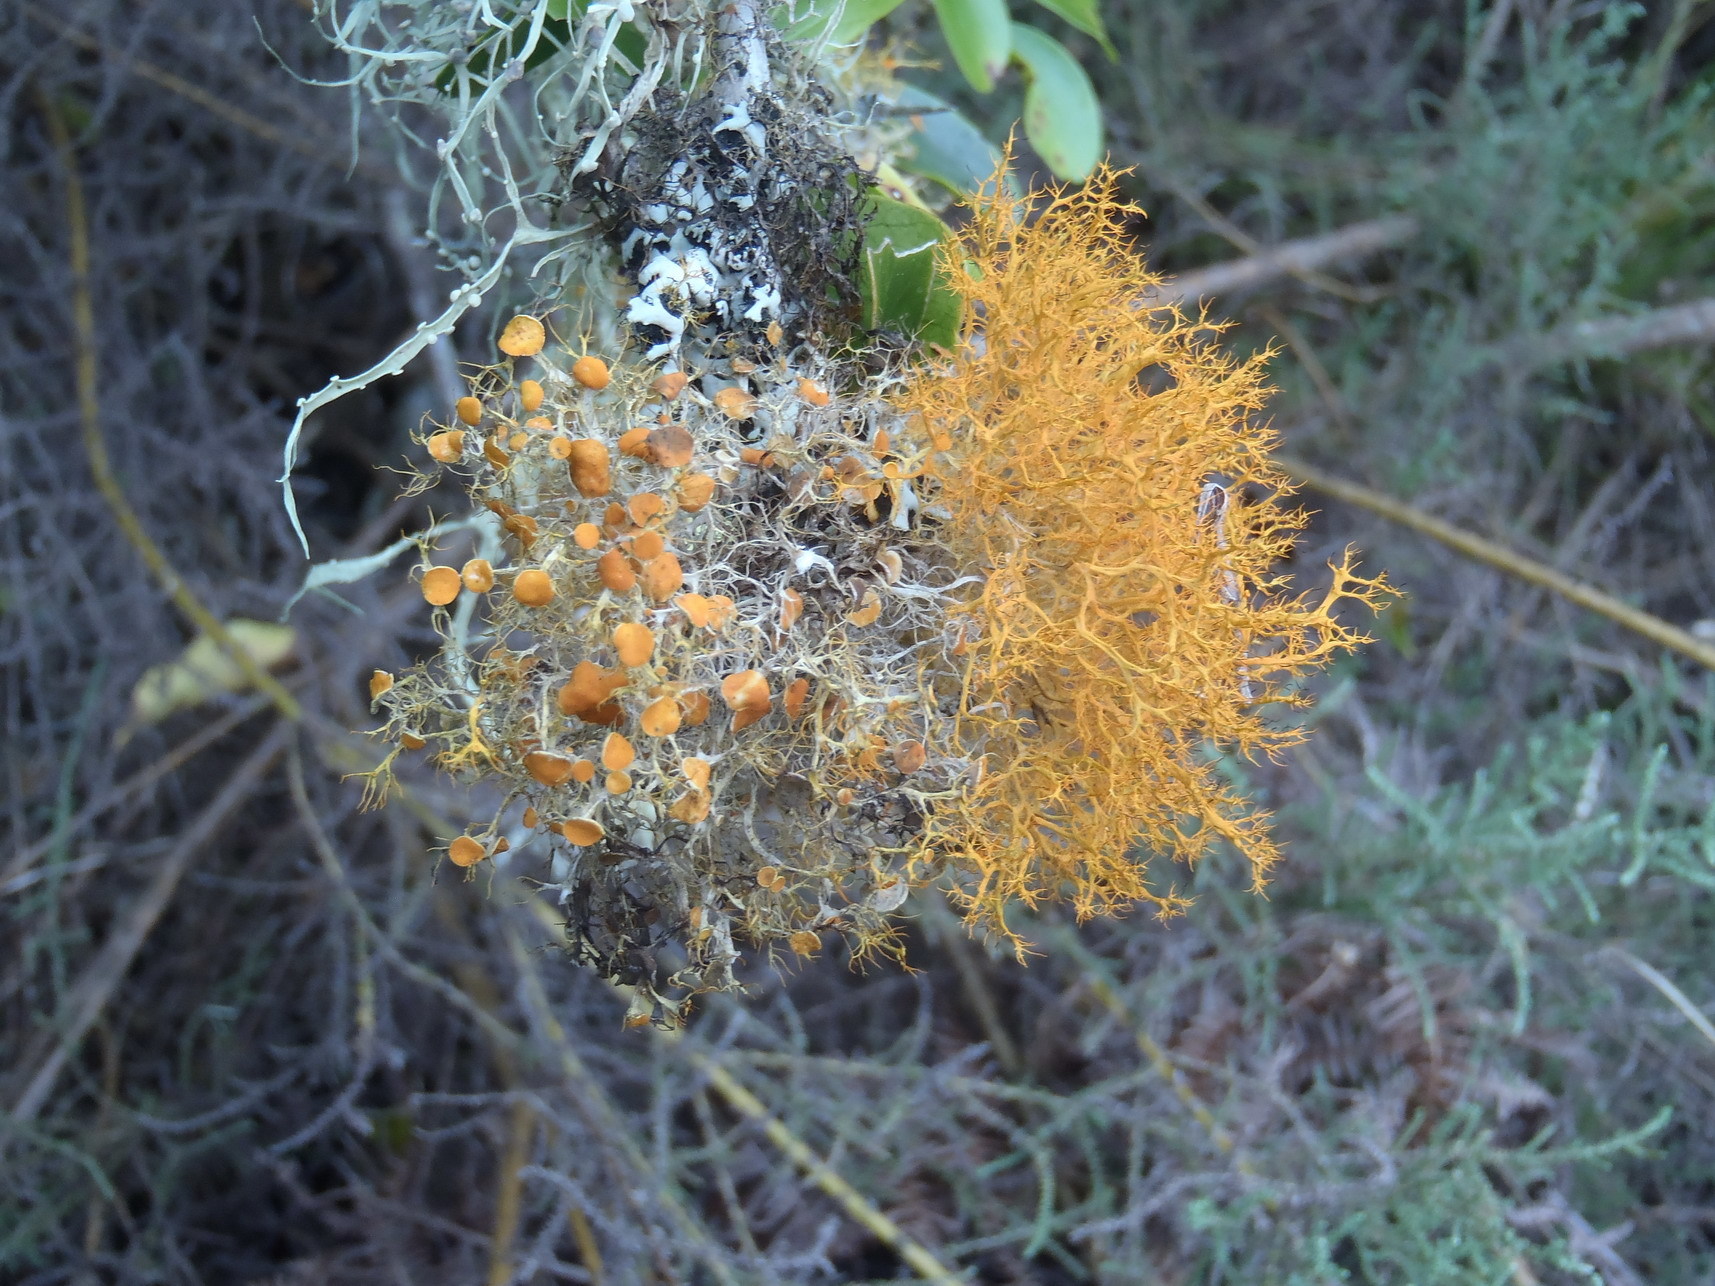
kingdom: Fungi
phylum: Ascomycota
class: Lecanoromycetes
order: Teloschistales
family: Teloschistaceae
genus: Teloschistes
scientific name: Teloschistes inflatus
